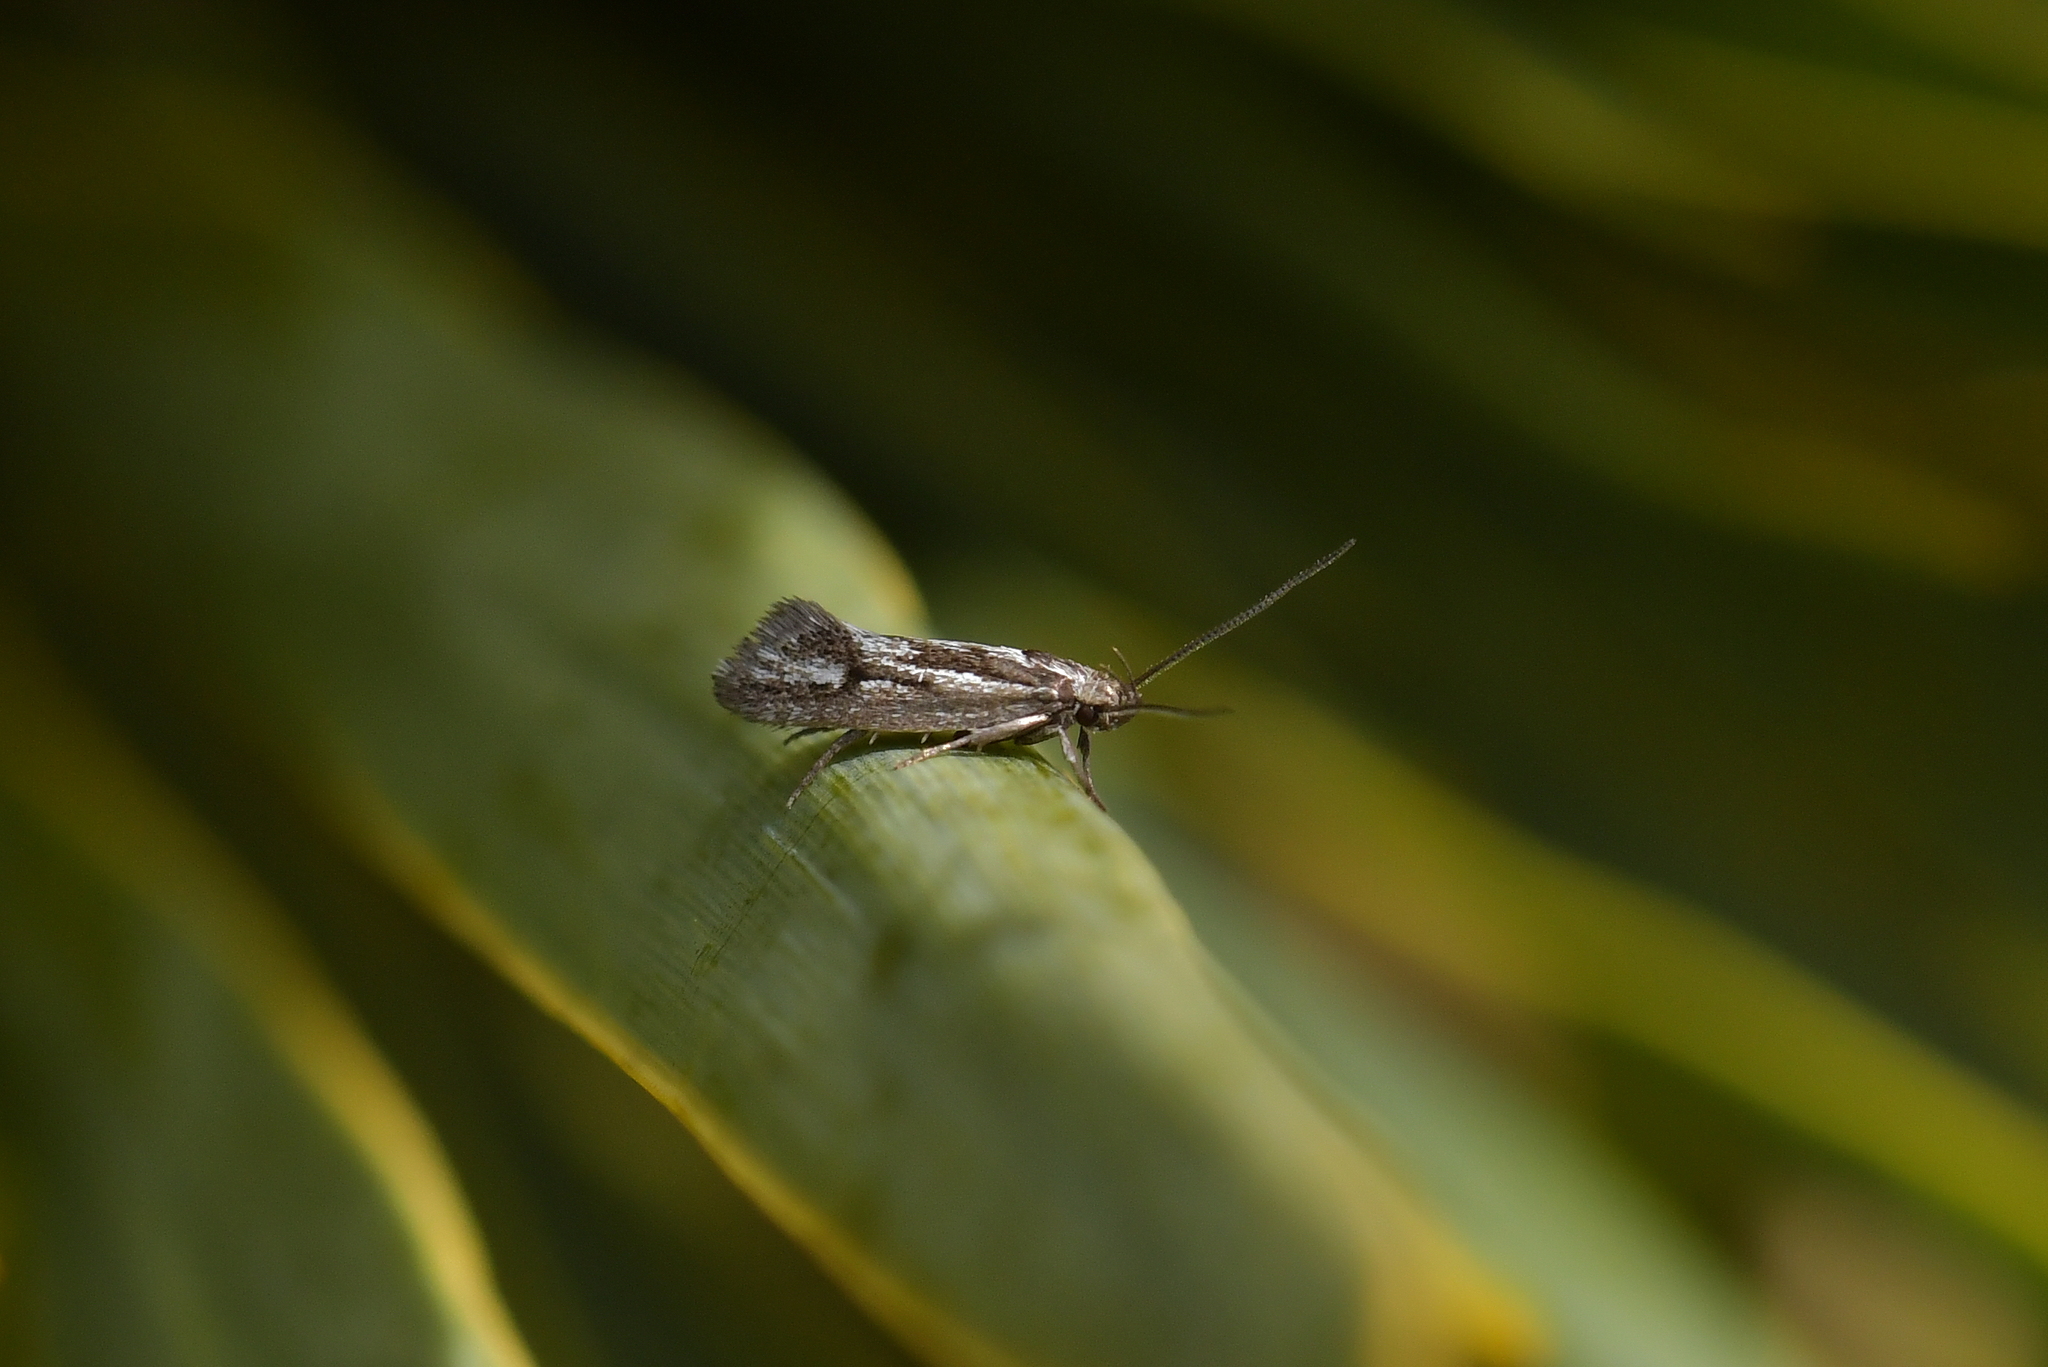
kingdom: Animalia
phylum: Arthropoda
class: Insecta
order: Lepidoptera
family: Oecophoridae
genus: Prepalla
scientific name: Prepalla
